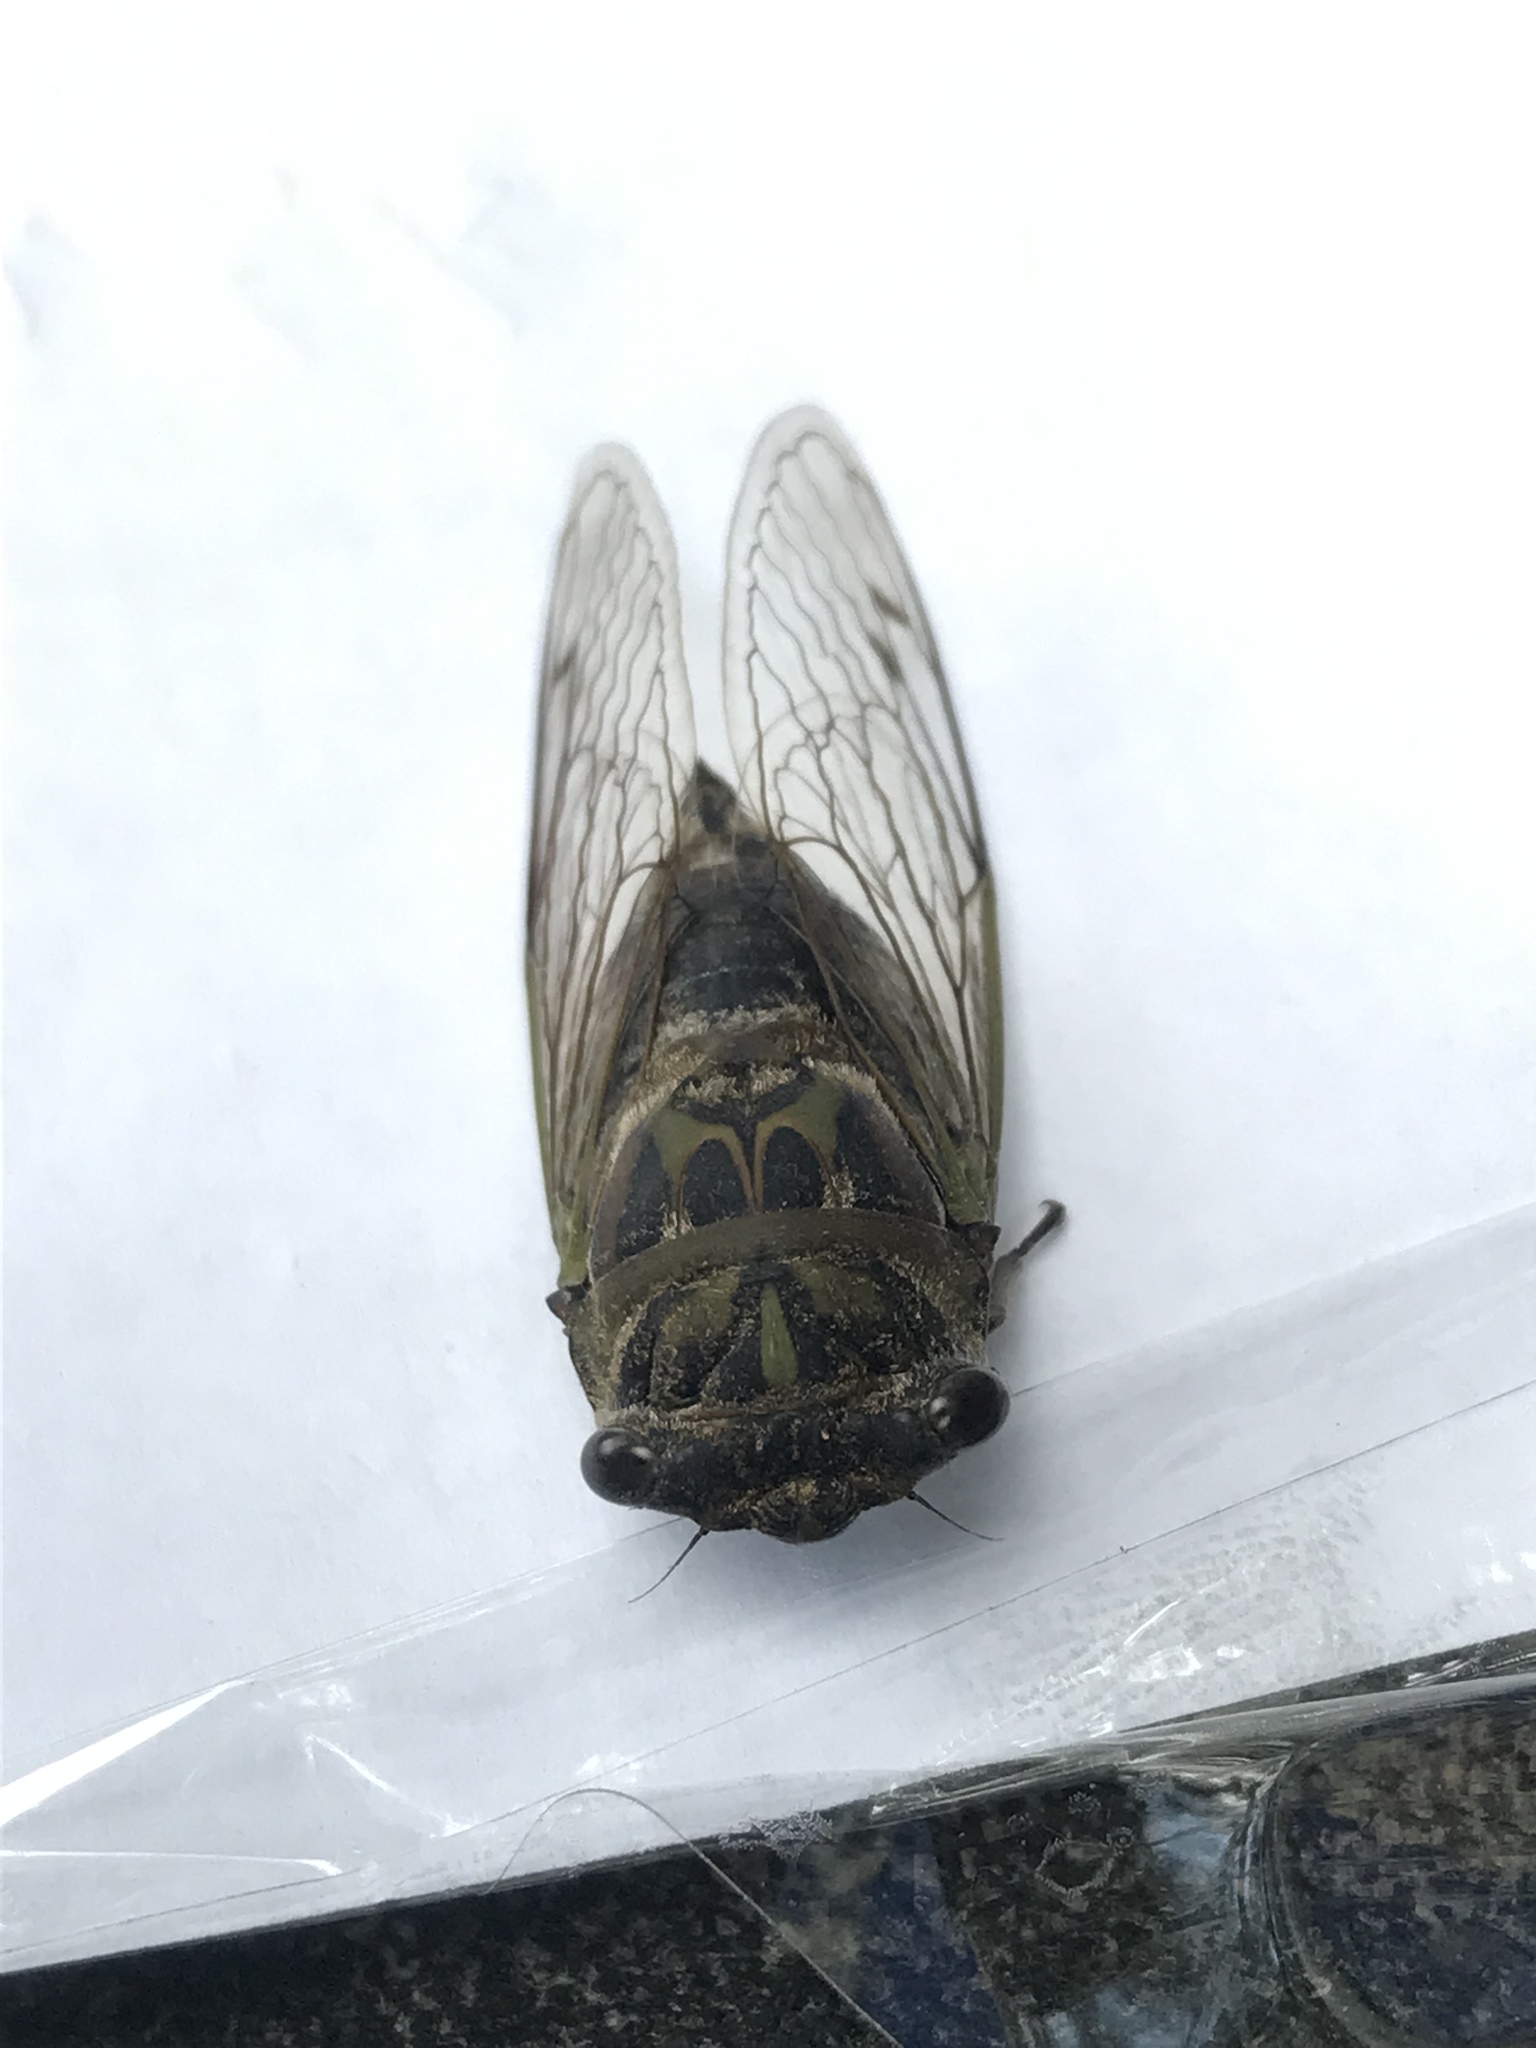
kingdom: Animalia
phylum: Arthropoda
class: Insecta
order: Hemiptera
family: Cicadidae
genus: Neotibicen
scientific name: Neotibicen canicularis
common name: God-day cicada
